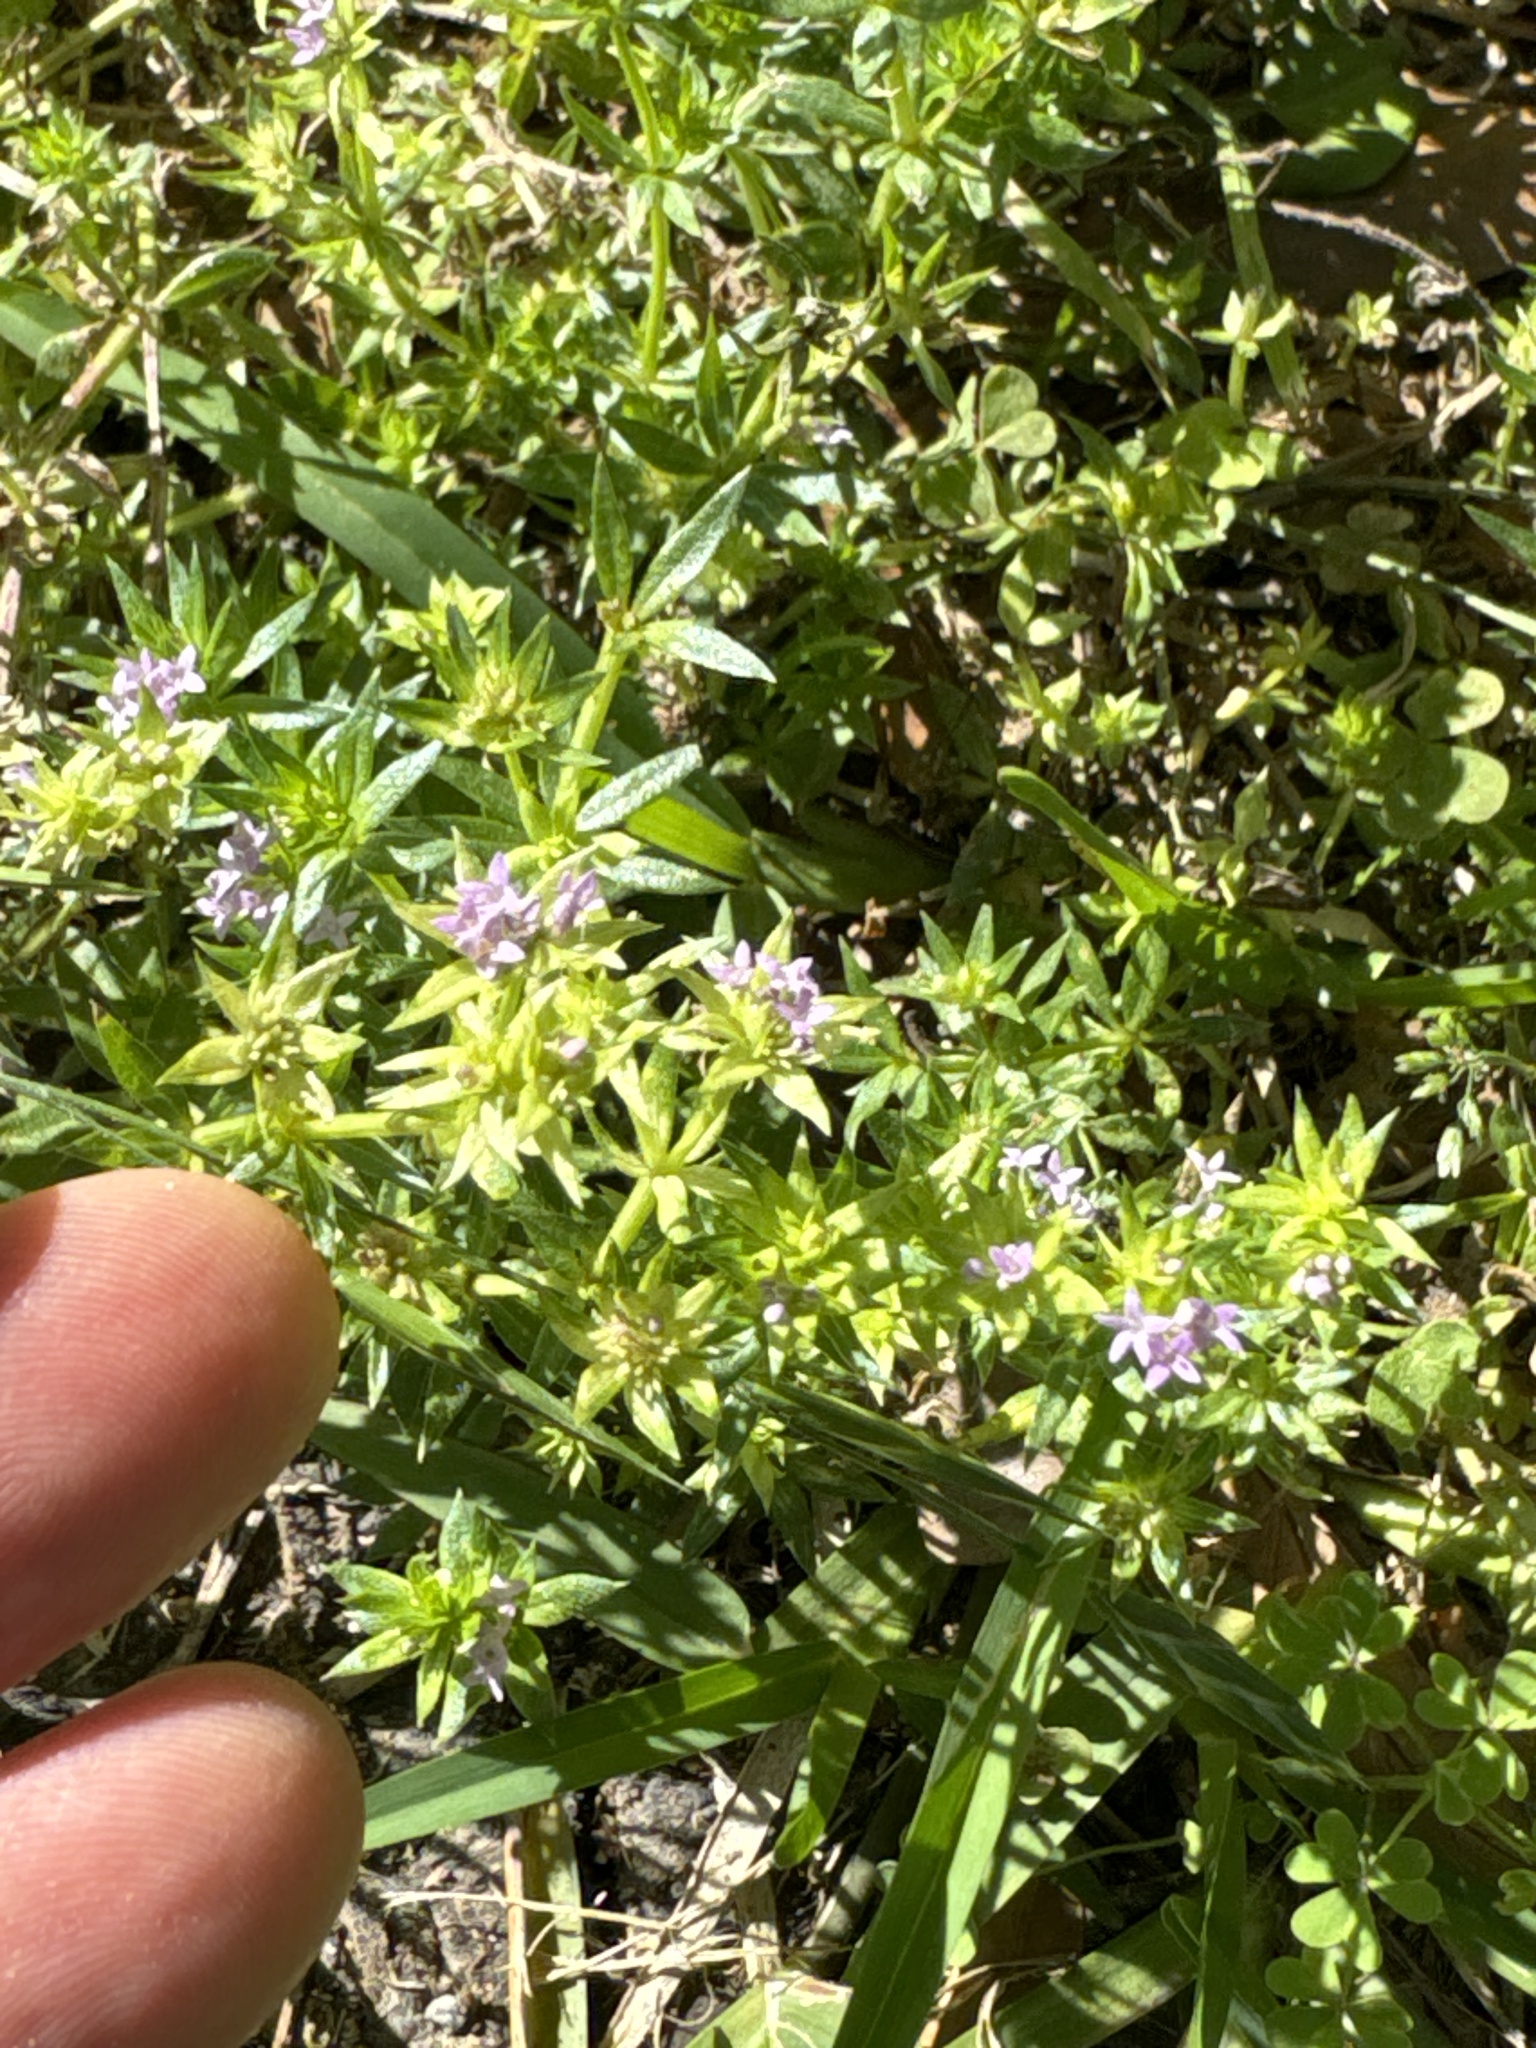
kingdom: Plantae
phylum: Tracheophyta
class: Magnoliopsida
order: Gentianales
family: Rubiaceae
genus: Sherardia
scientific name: Sherardia arvensis
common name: Field madder
